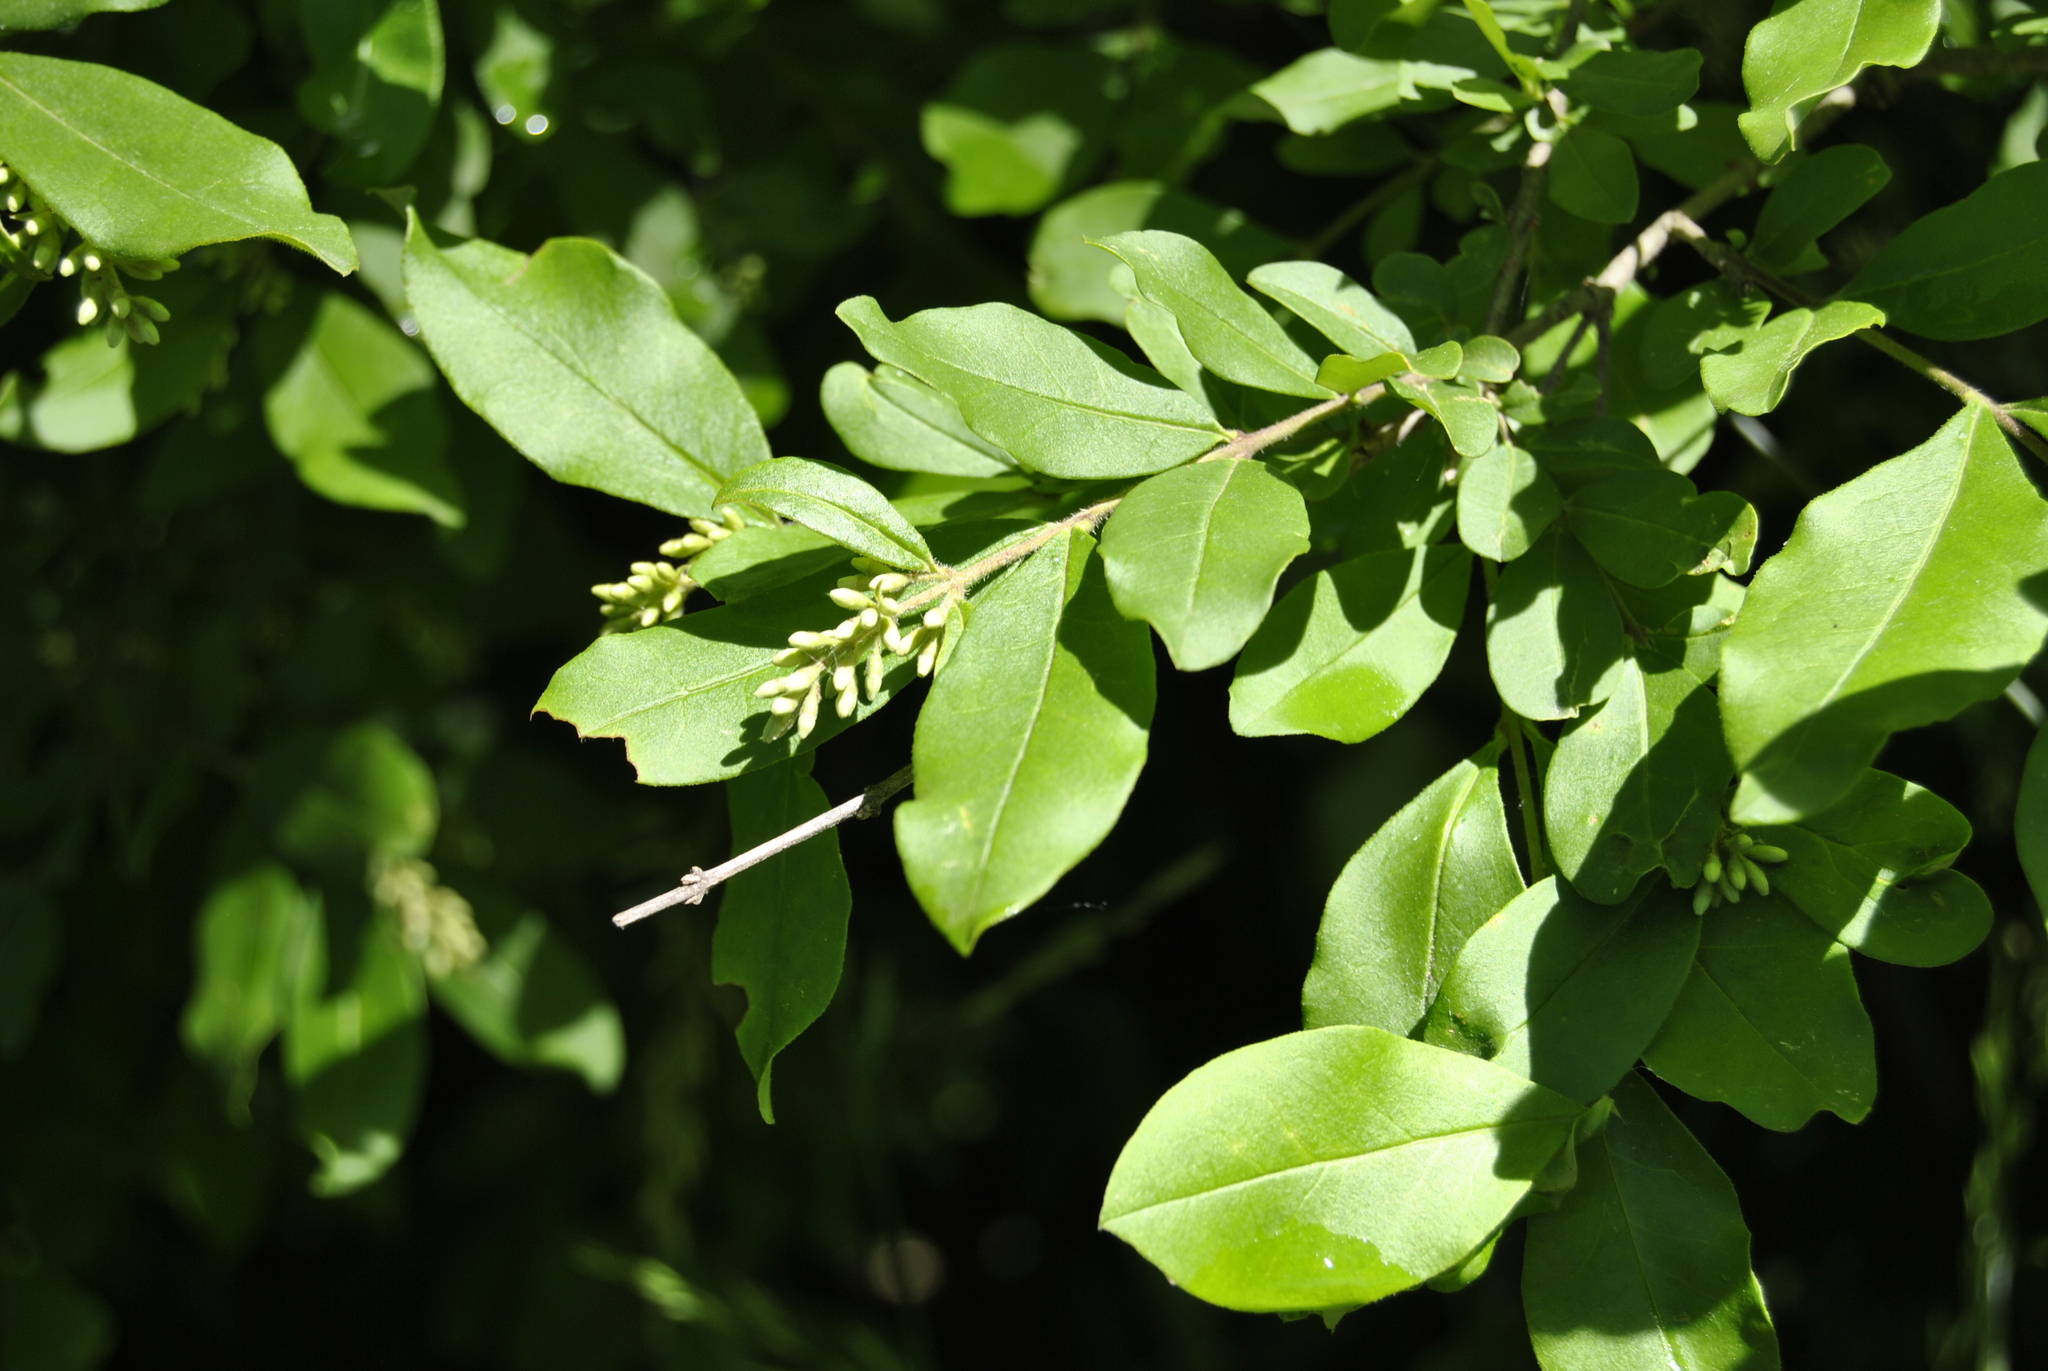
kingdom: Plantae
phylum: Tracheophyta
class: Magnoliopsida
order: Lamiales
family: Oleaceae
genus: Ligustrum
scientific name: Ligustrum obtusifolium
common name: Border privet
